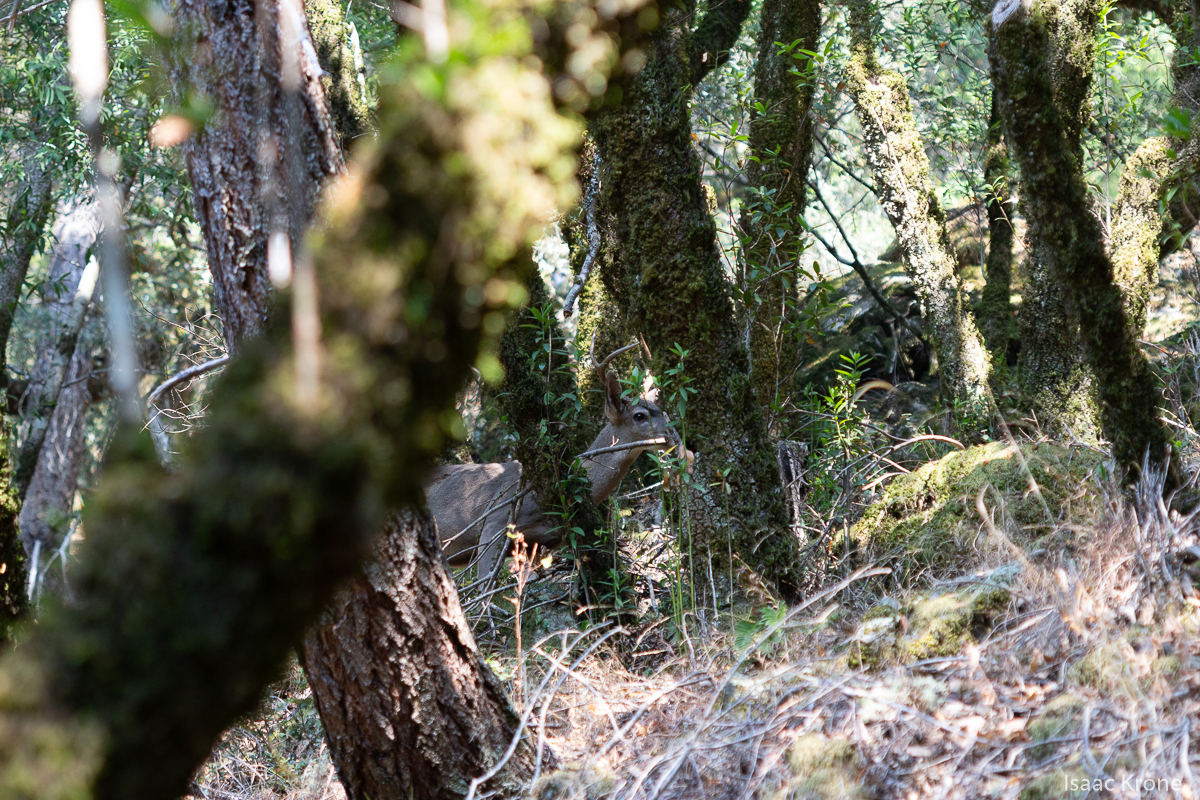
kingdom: Animalia
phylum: Chordata
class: Mammalia
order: Artiodactyla
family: Cervidae
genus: Odocoileus
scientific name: Odocoileus hemionus
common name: Mule deer
